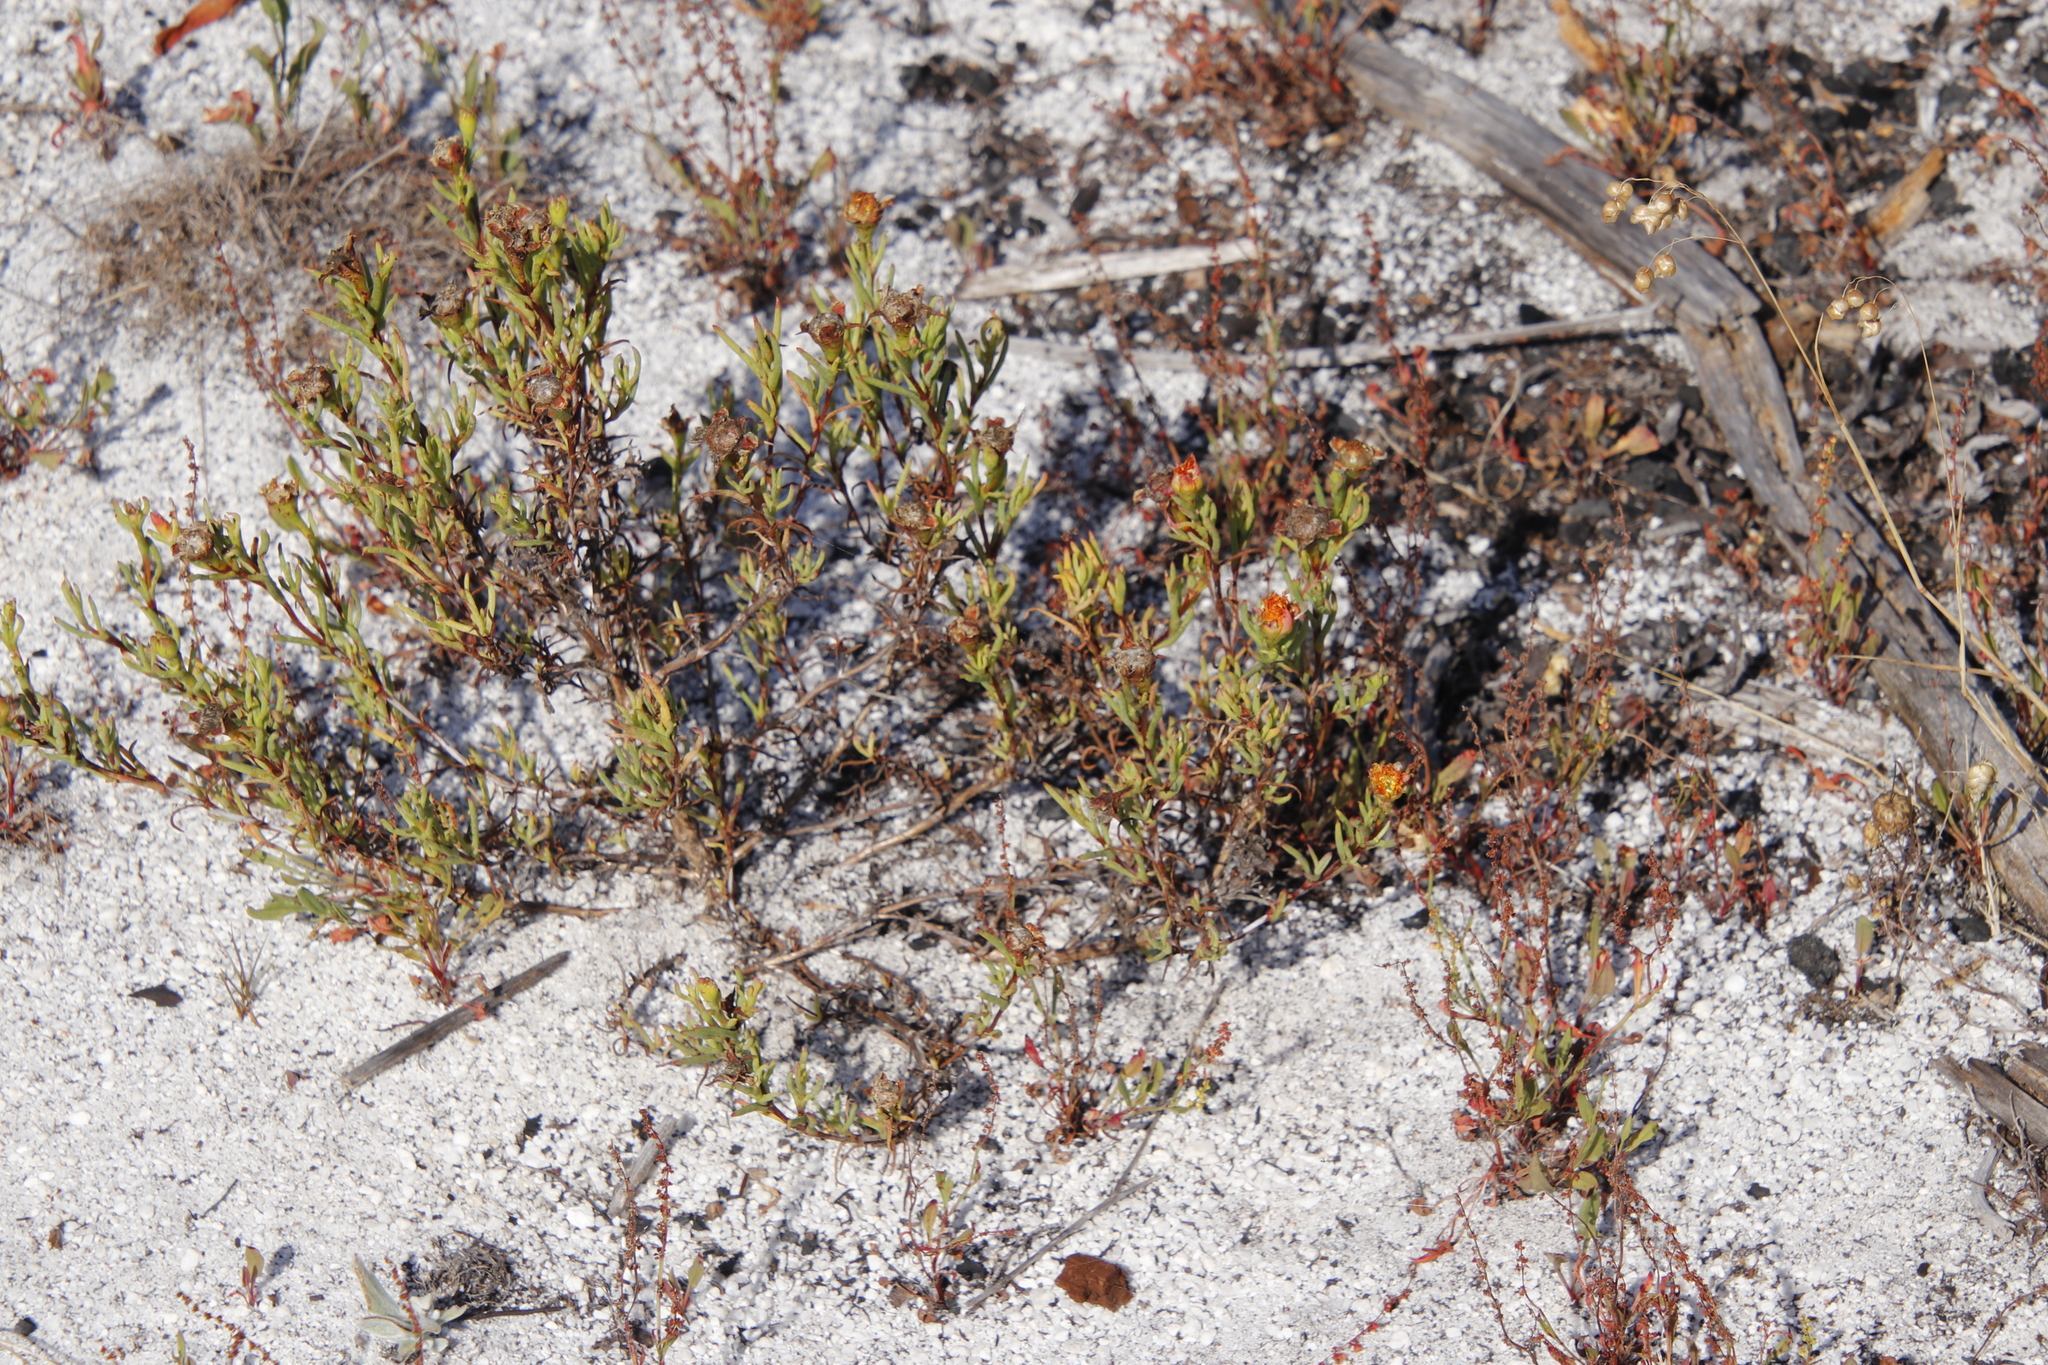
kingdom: Plantae
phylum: Tracheophyta
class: Magnoliopsida
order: Caryophyllales
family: Aizoaceae
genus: Lampranthus
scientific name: Lampranthus bicolor
